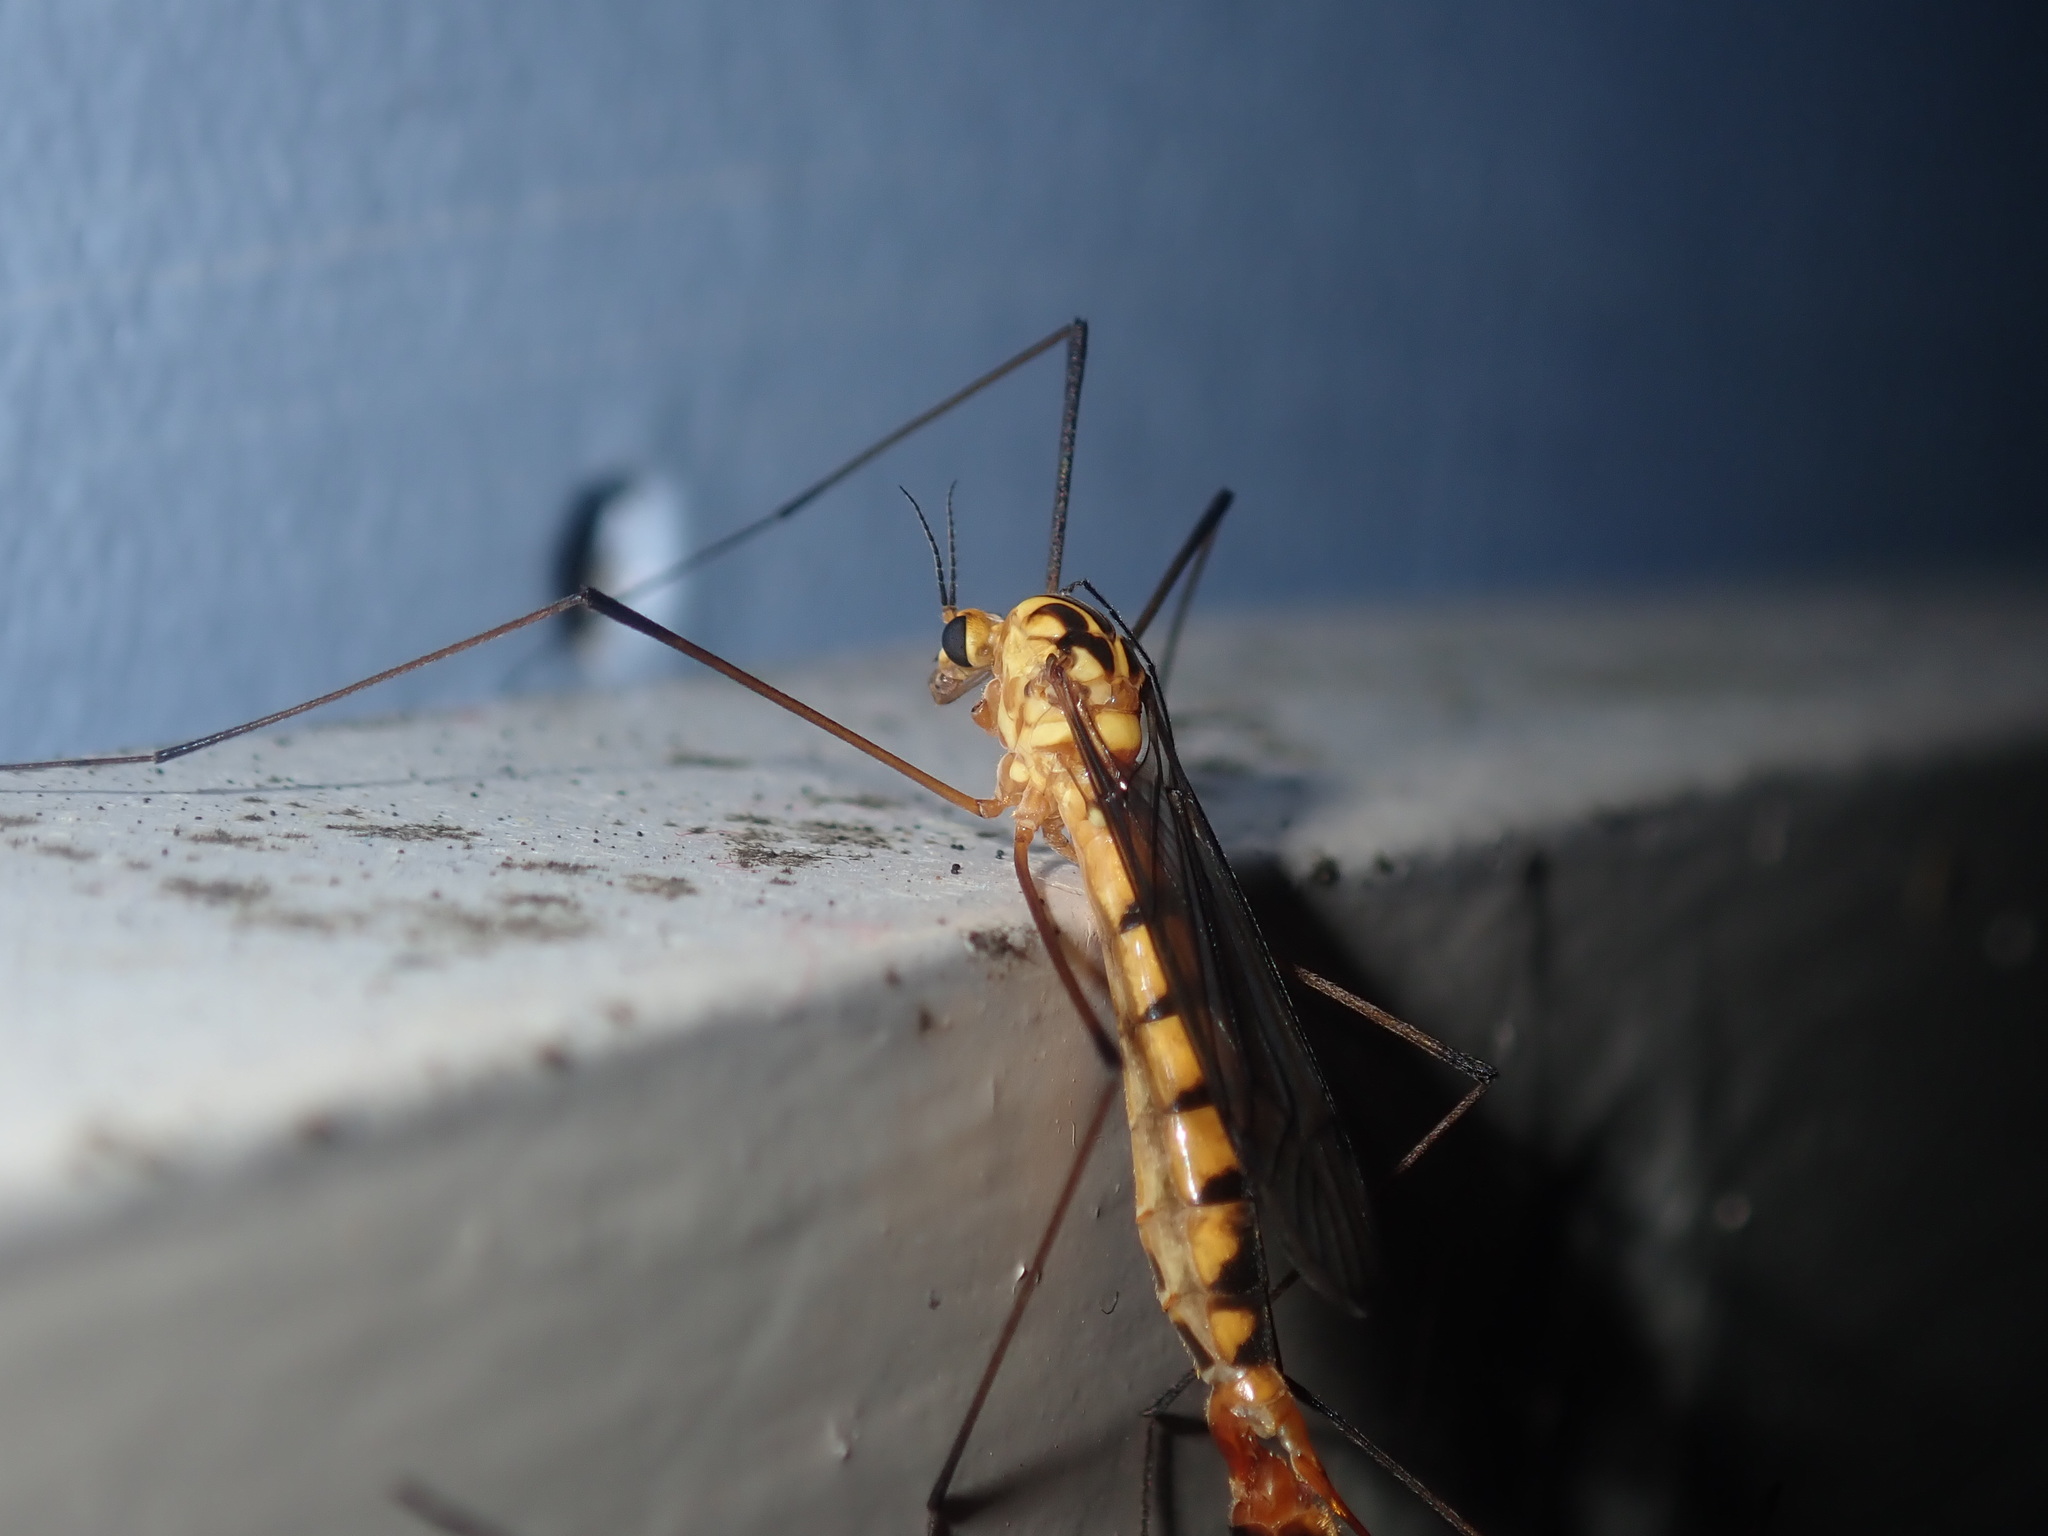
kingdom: Animalia
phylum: Arthropoda
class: Insecta
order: Diptera
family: Tipulidae
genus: Nephrotoma
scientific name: Nephrotoma australasiae
